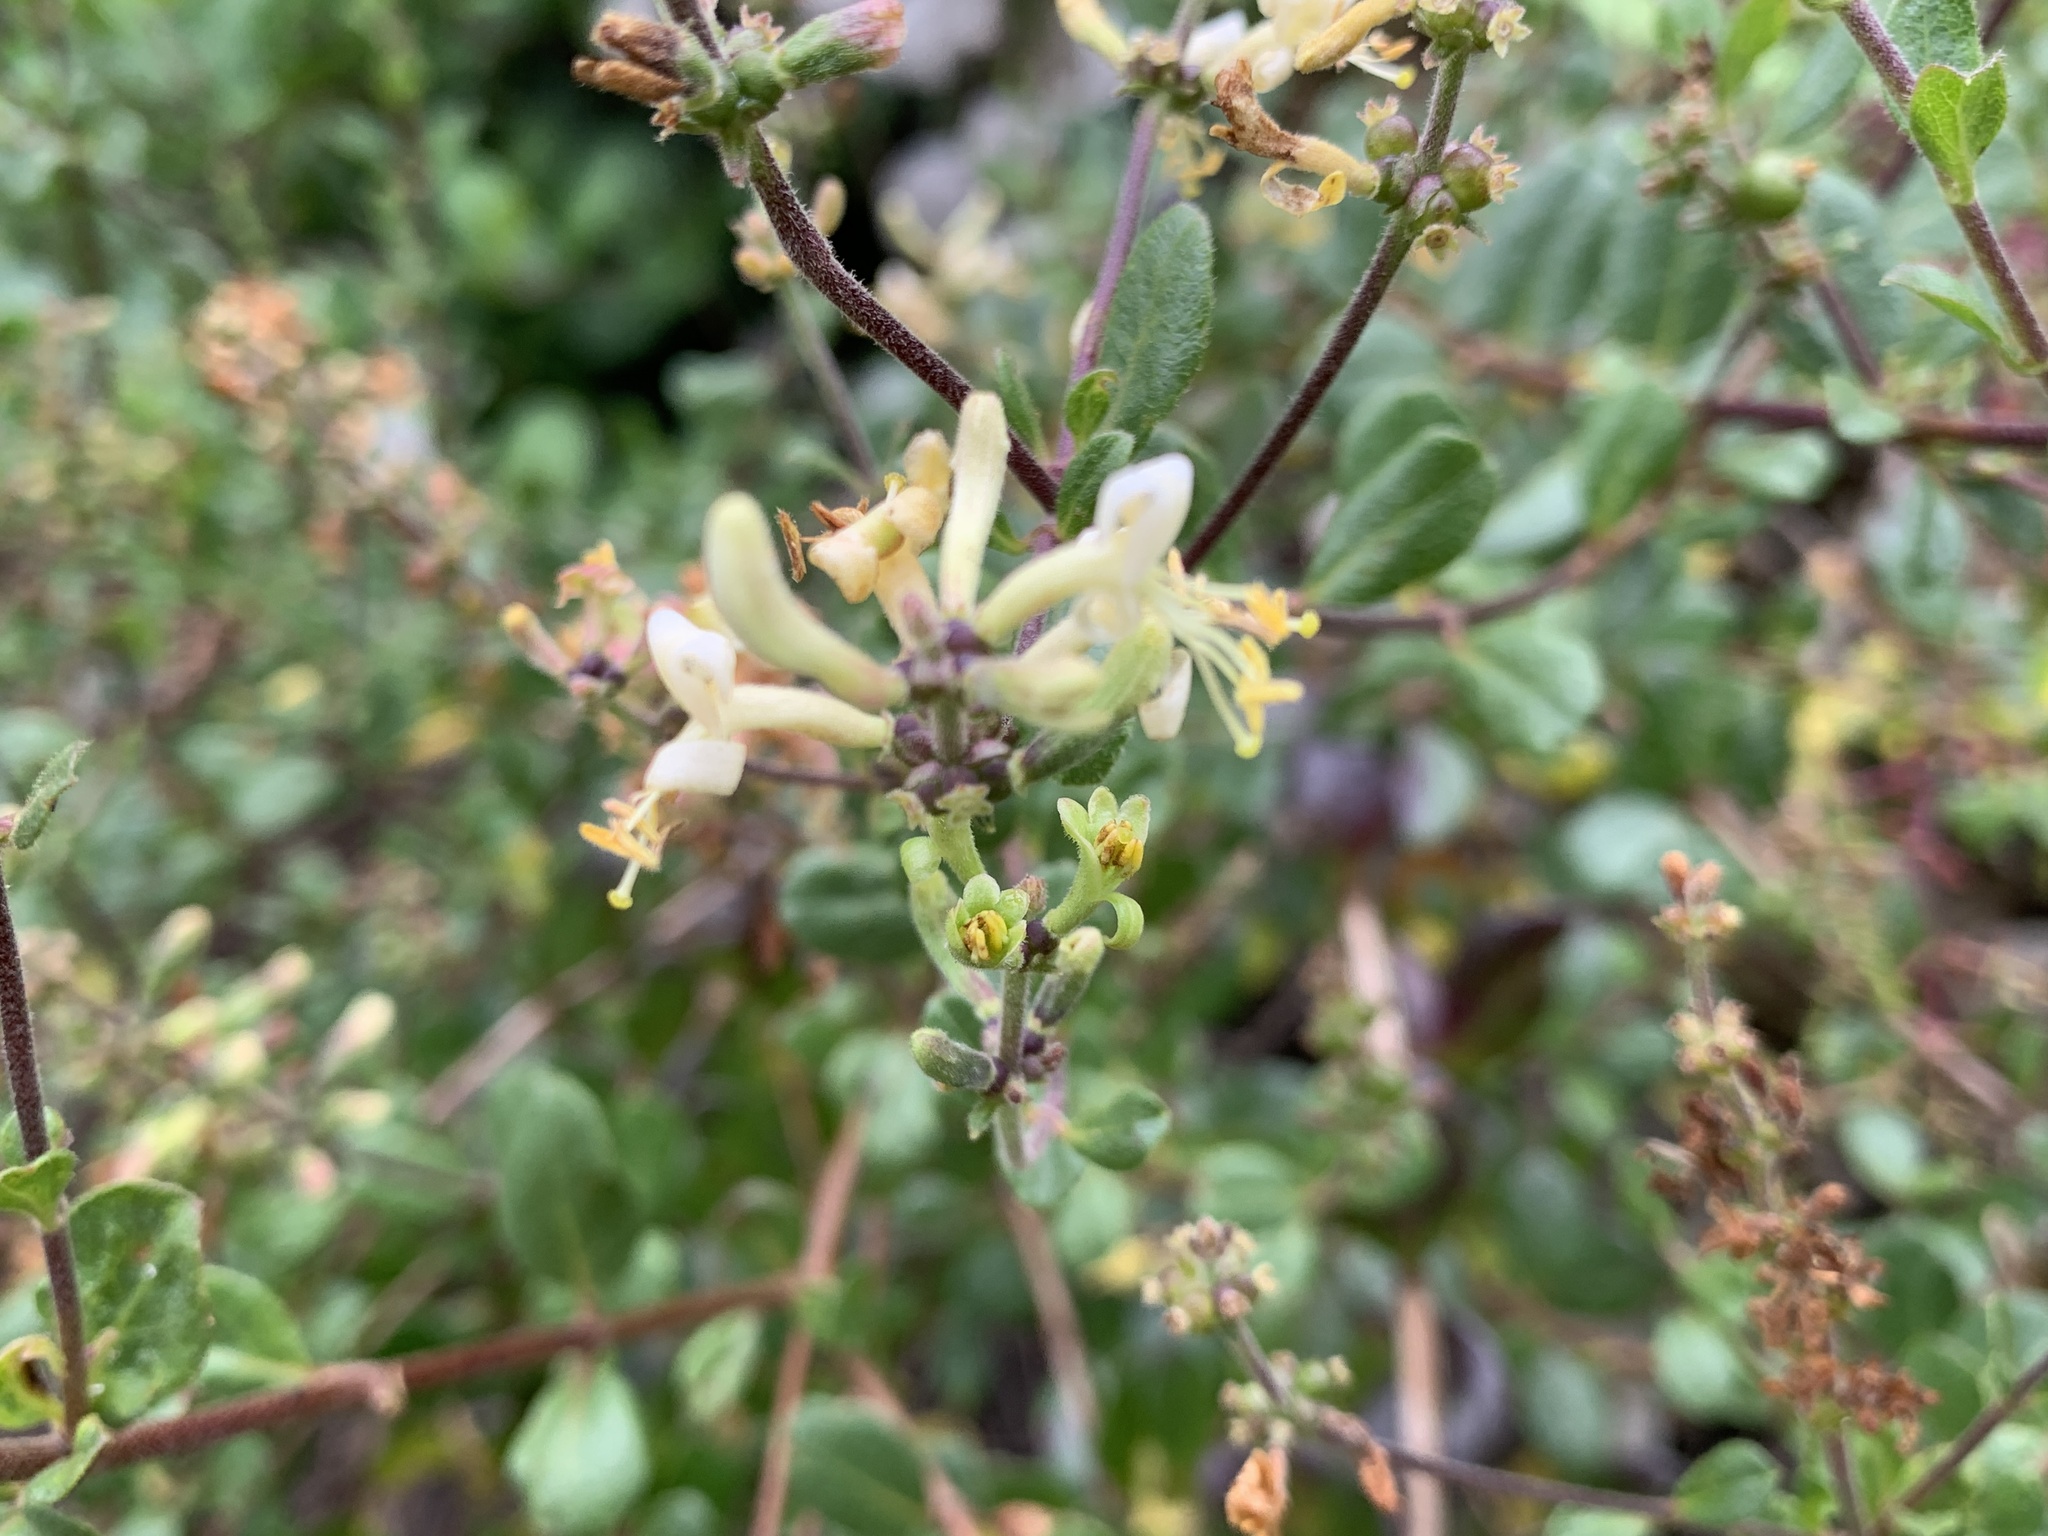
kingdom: Plantae
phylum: Tracheophyta
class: Magnoliopsida
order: Dipsacales
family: Caprifoliaceae
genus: Lonicera
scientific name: Lonicera subspicata
